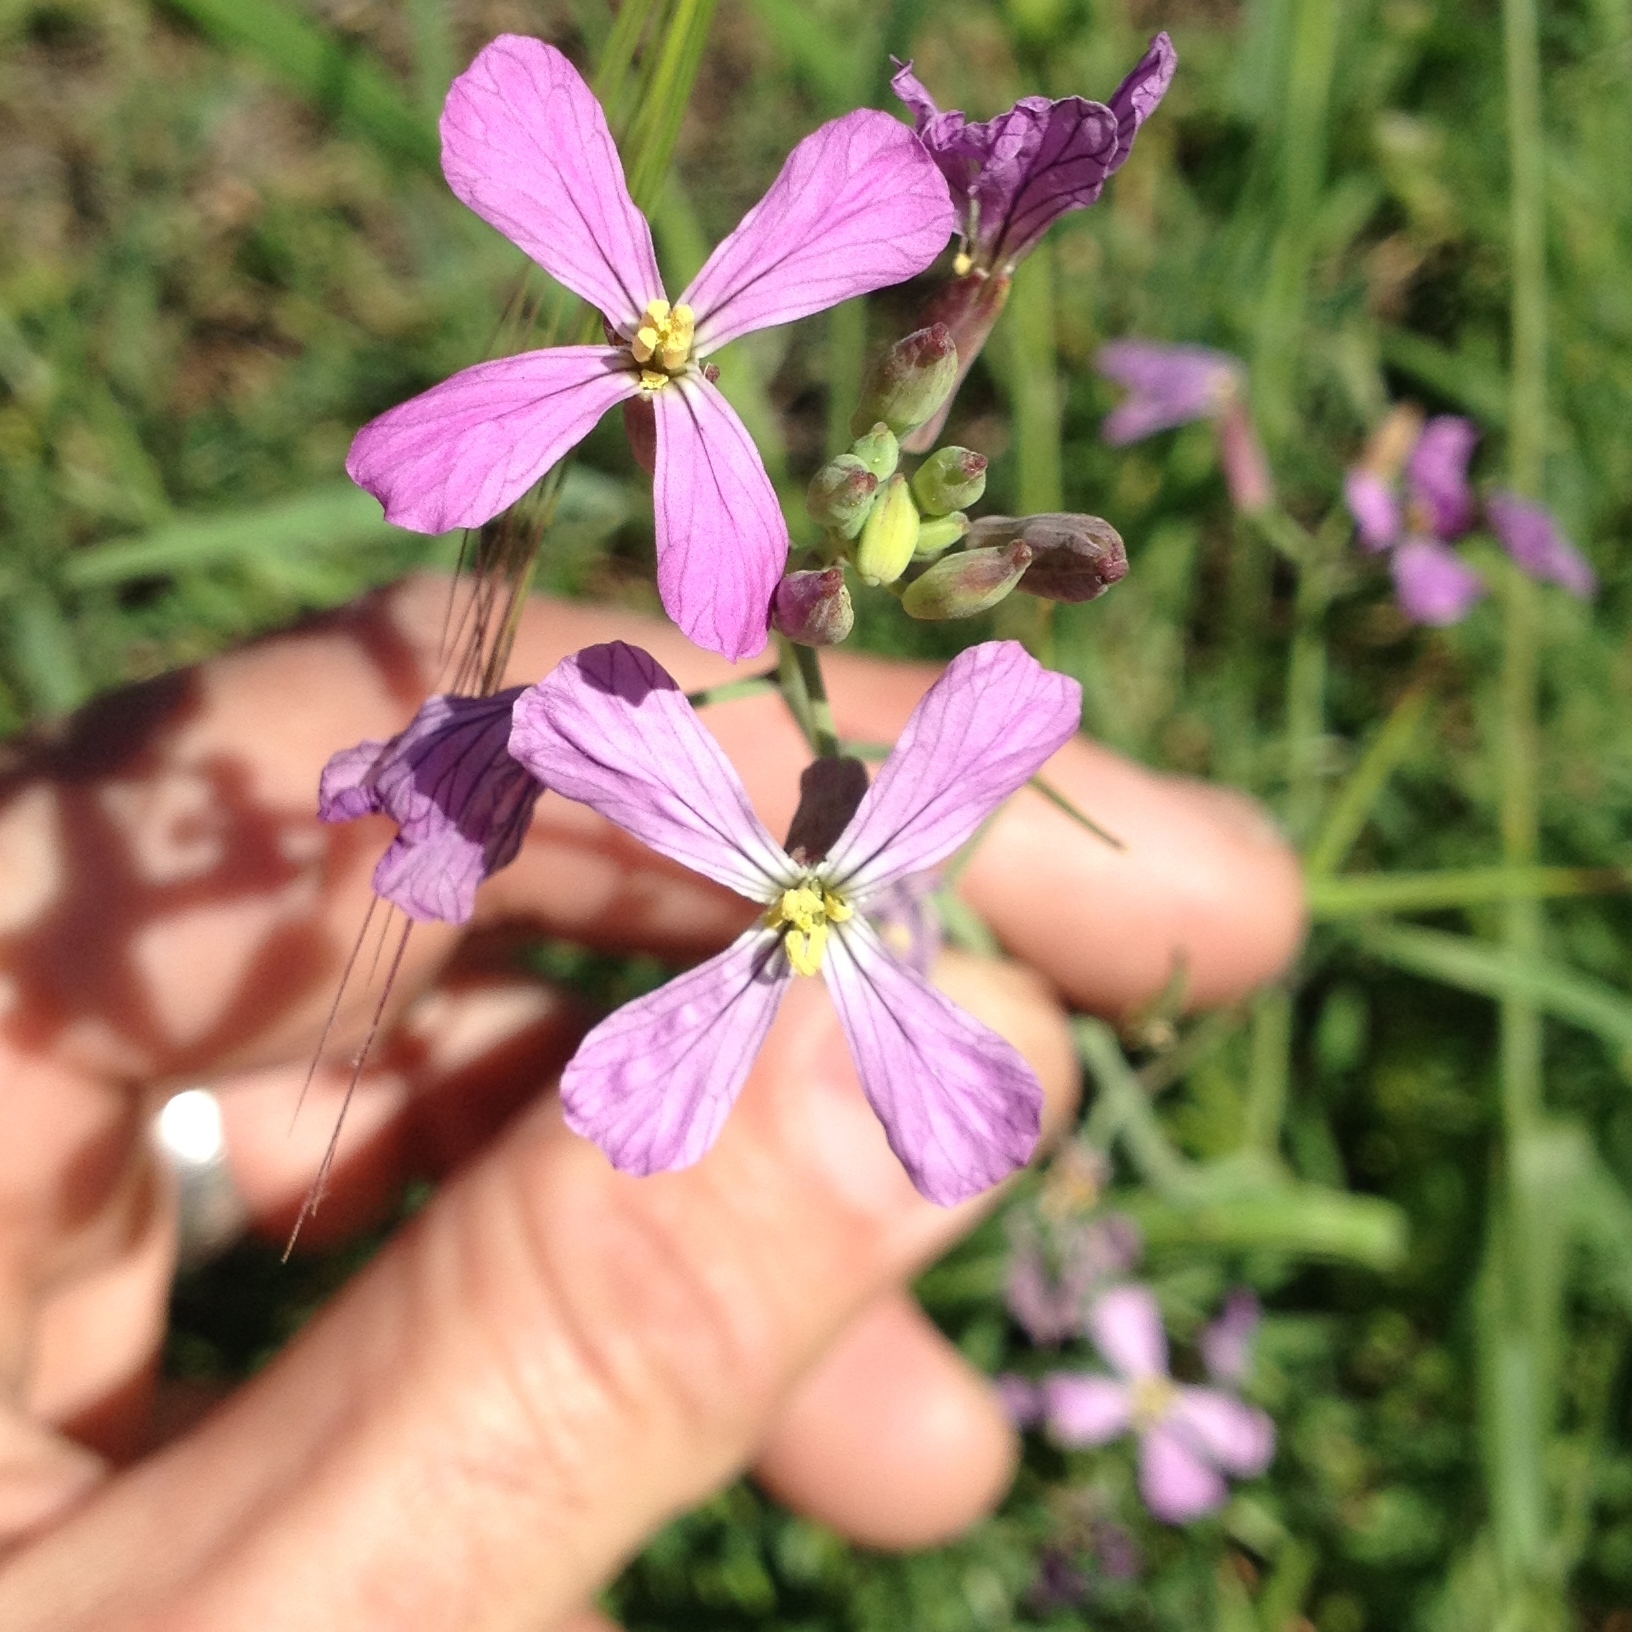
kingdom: Plantae
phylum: Tracheophyta
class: Magnoliopsida
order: Brassicales
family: Brassicaceae
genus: Raphanus
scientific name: Raphanus sativus
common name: Cultivated radish
